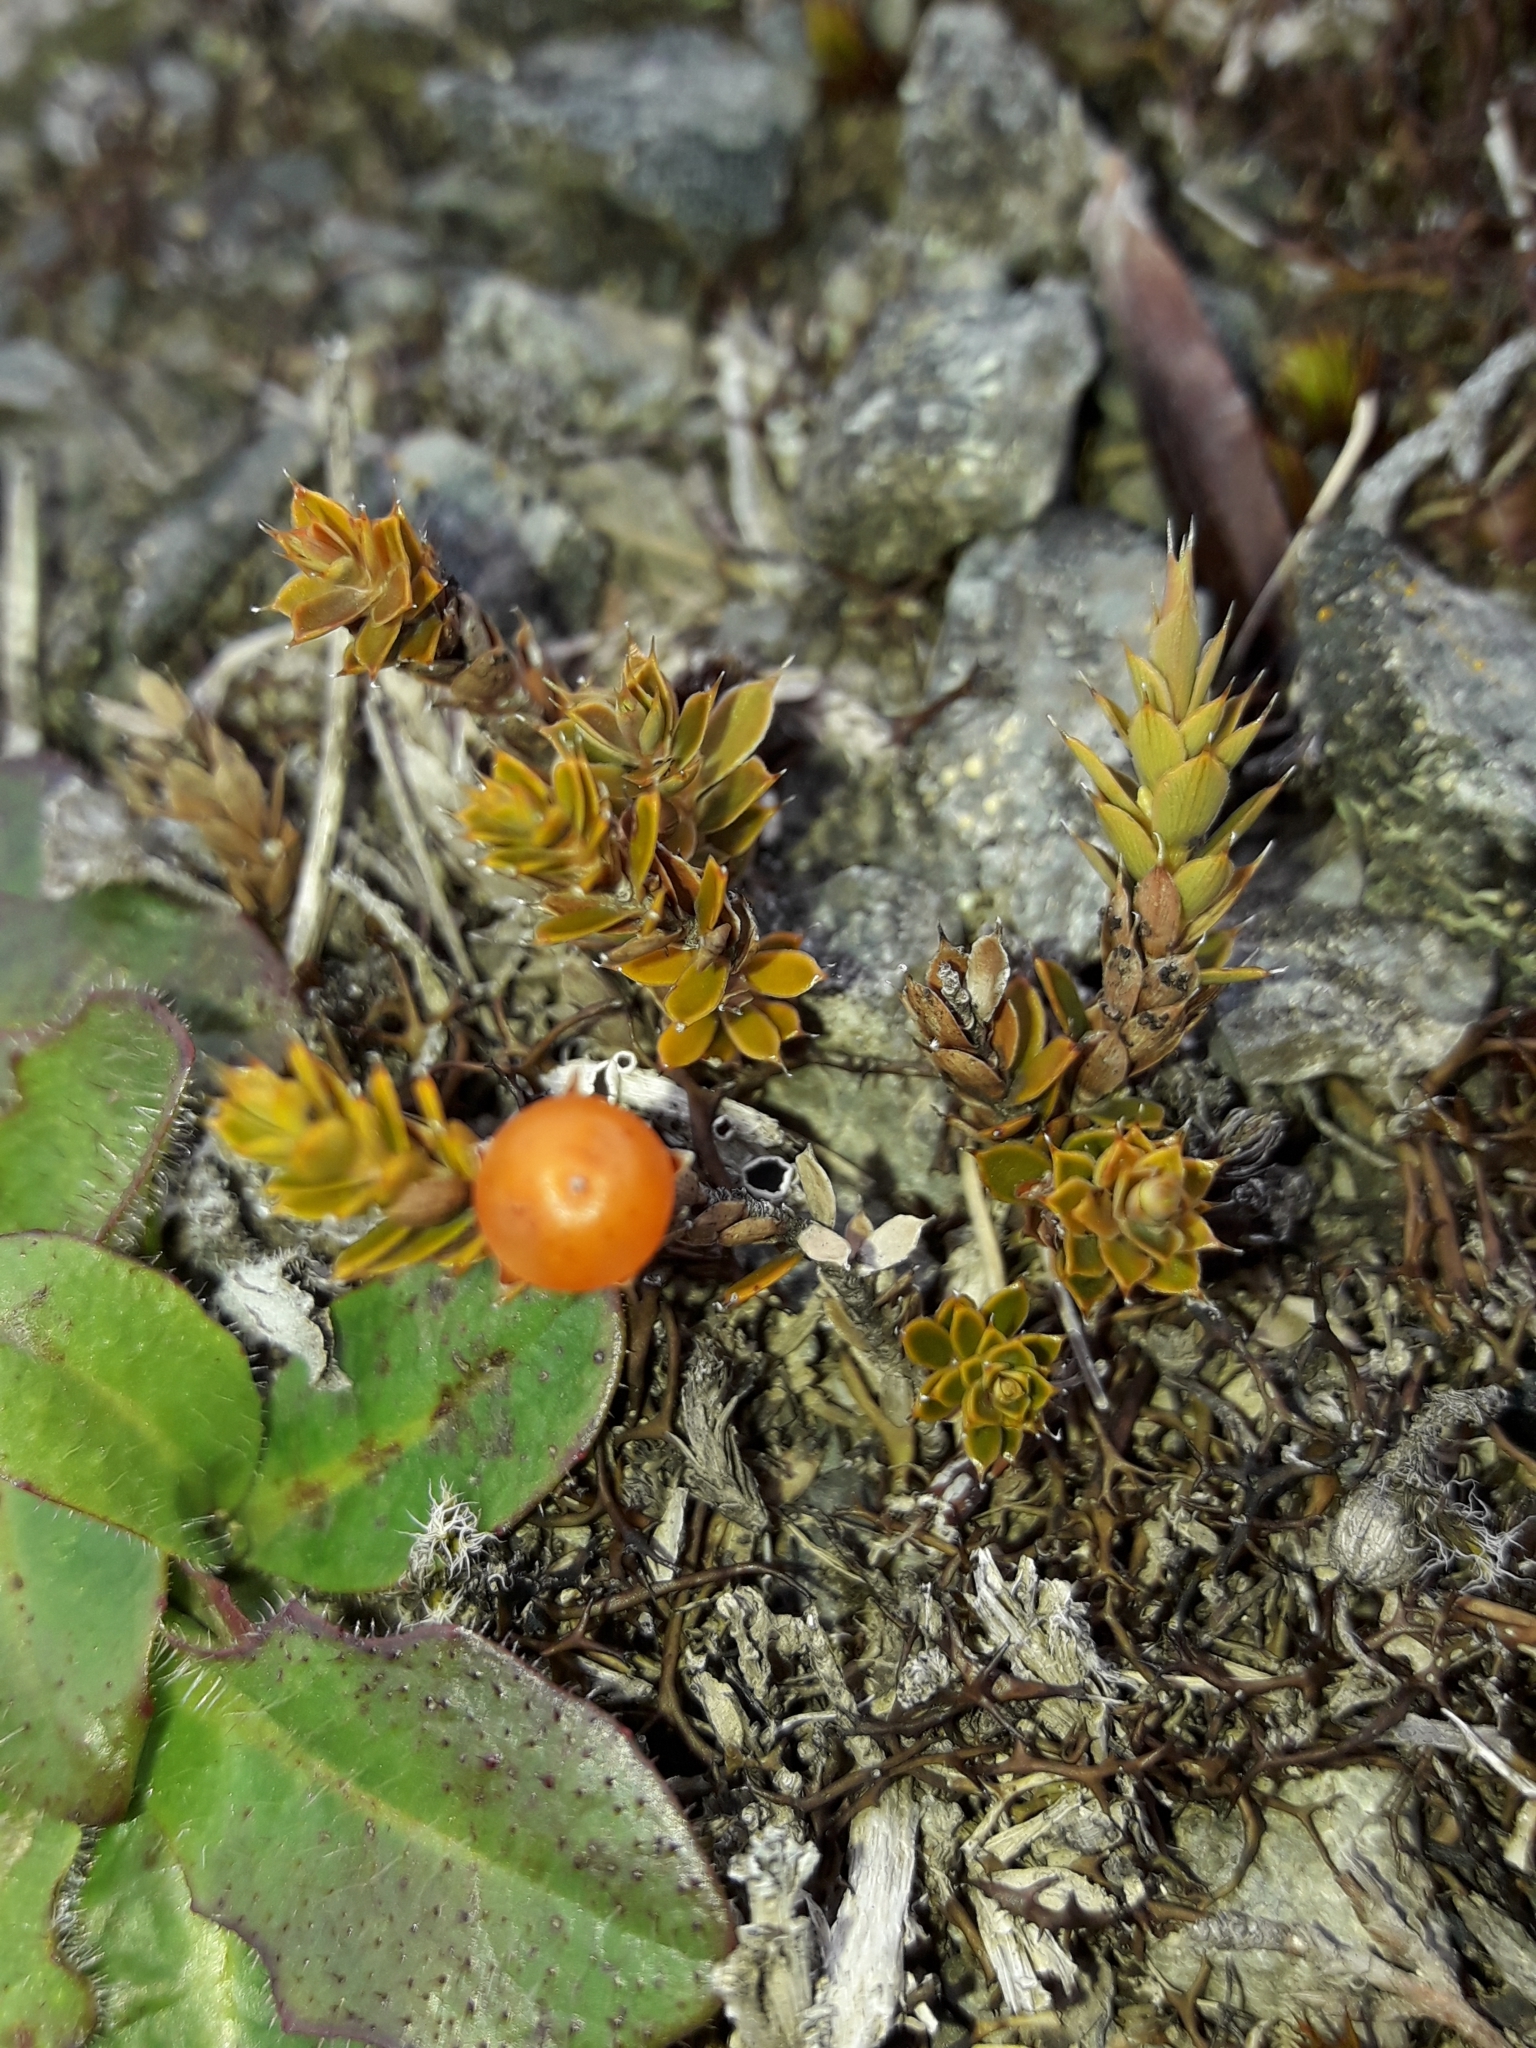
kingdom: Plantae
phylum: Tracheophyta
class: Magnoliopsida
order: Ericales
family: Ericaceae
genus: Styphelia
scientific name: Styphelia nesophila
